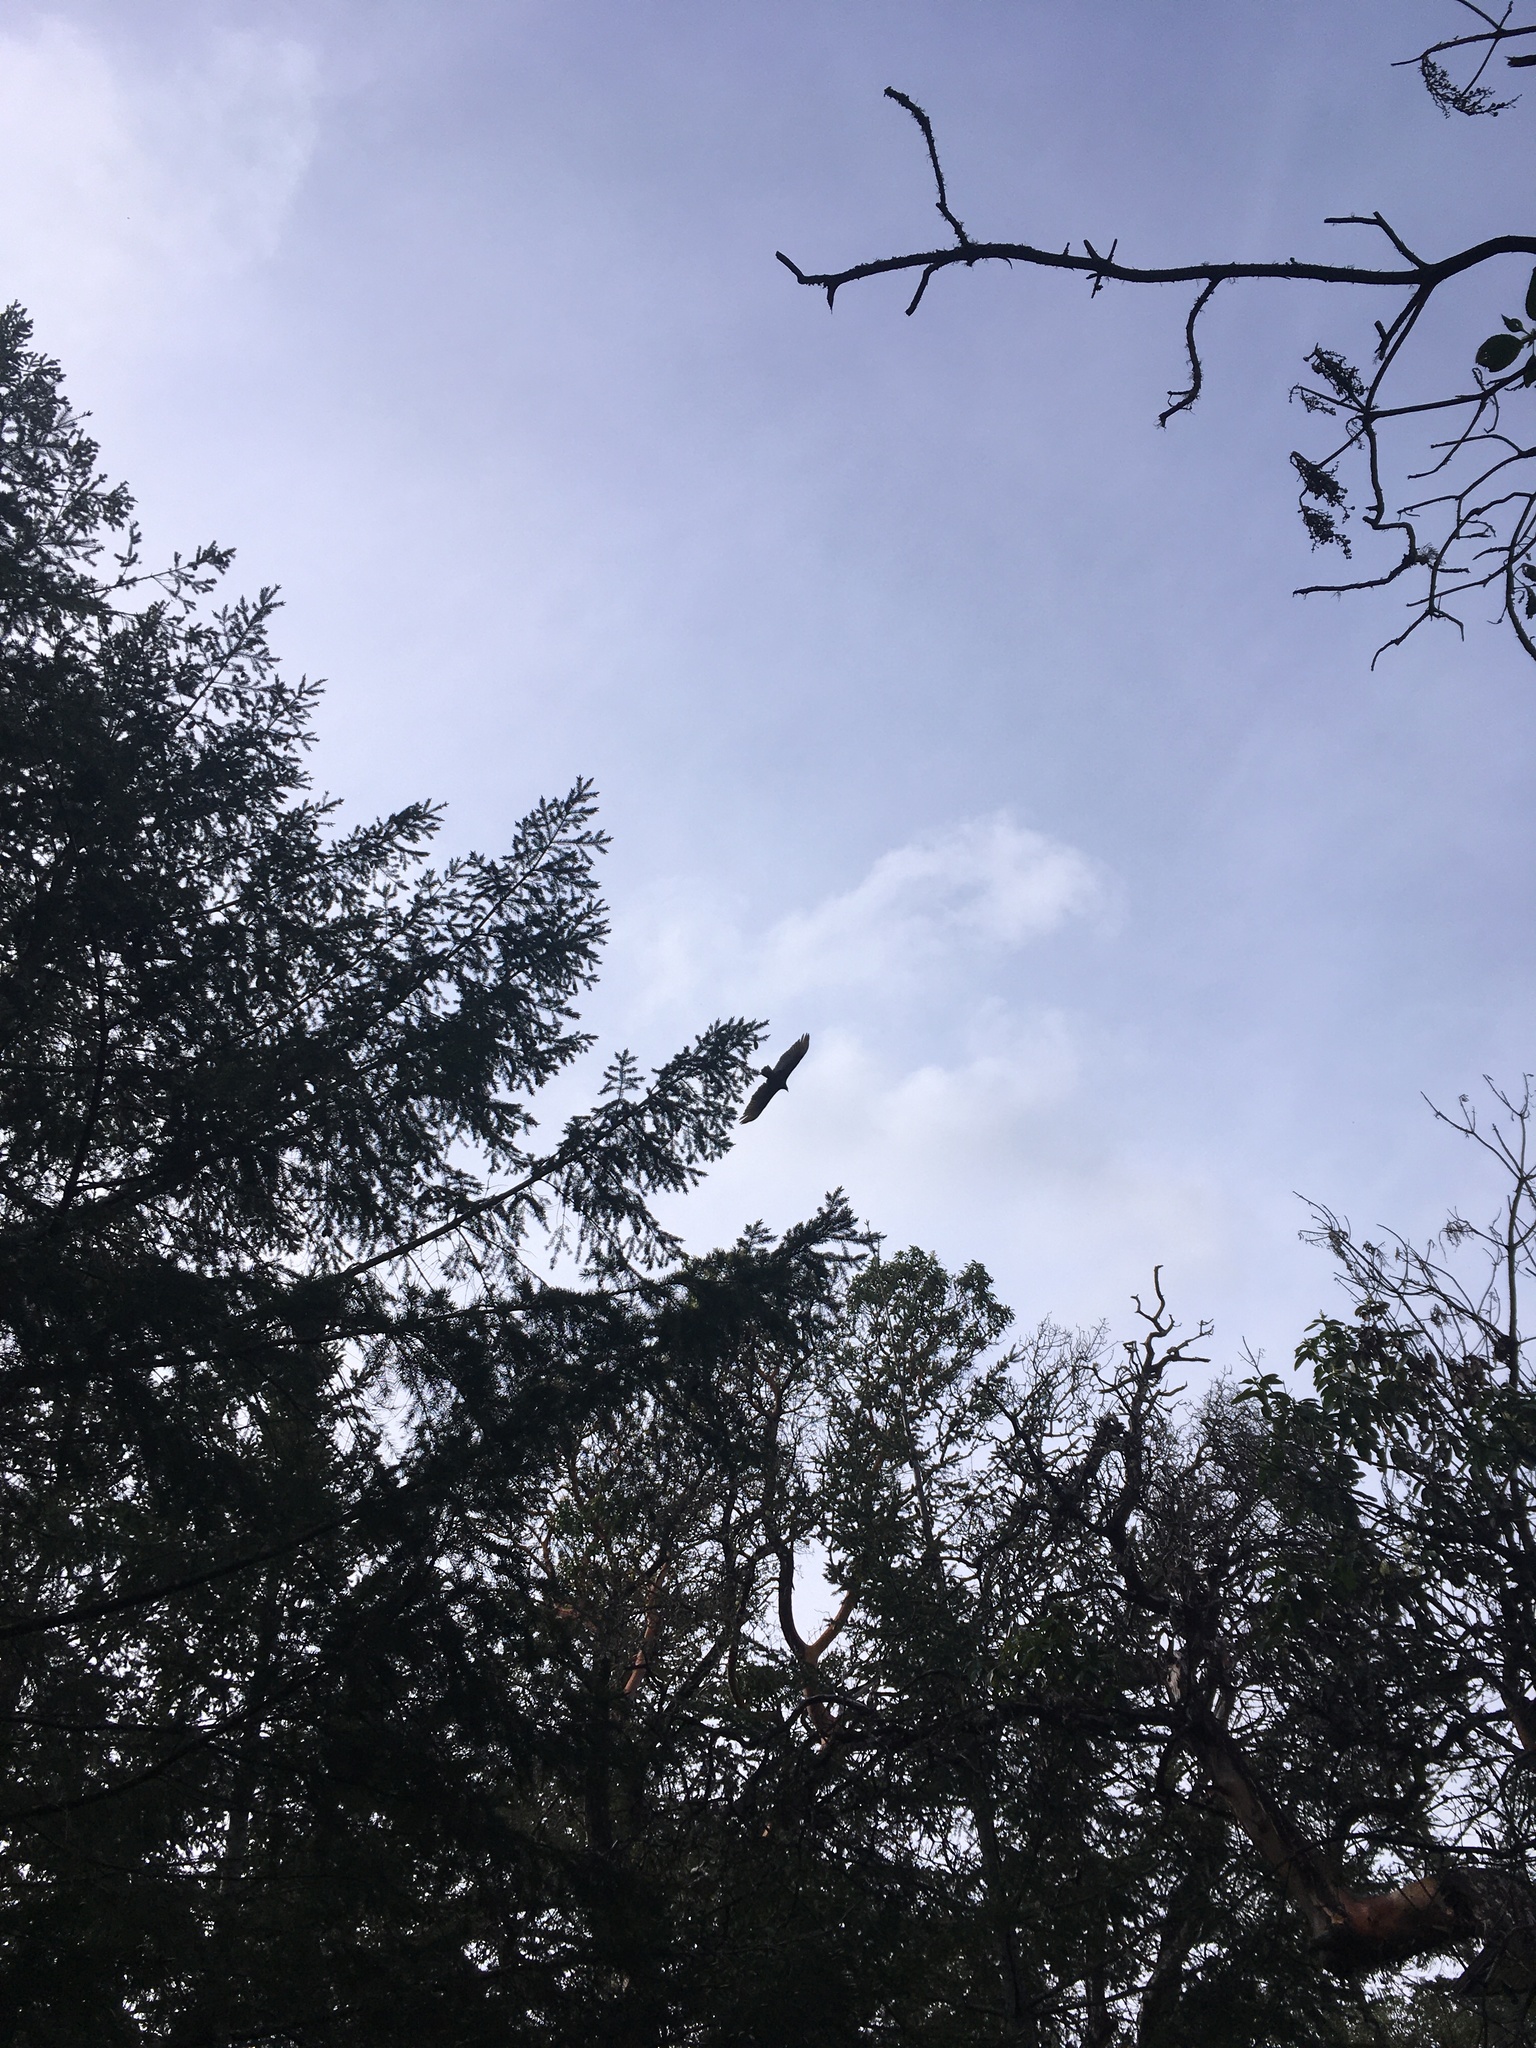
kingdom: Animalia
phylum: Chordata
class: Aves
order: Accipitriformes
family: Cathartidae
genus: Cathartes
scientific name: Cathartes aura
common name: Turkey vulture
